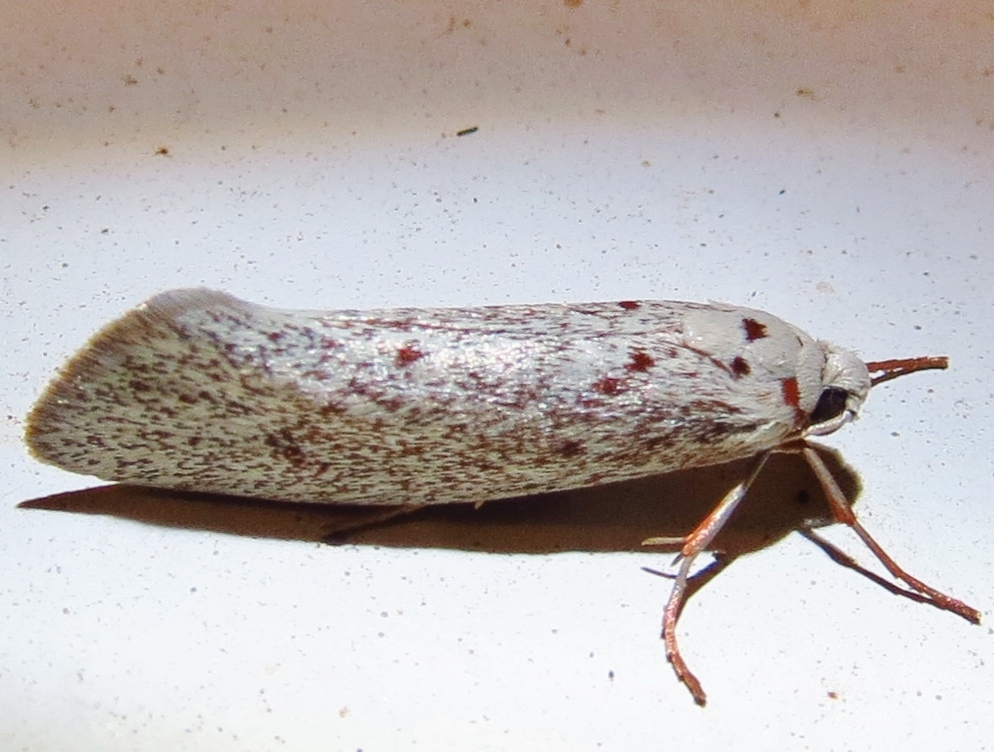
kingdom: Animalia
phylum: Arthropoda
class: Insecta
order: Lepidoptera
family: Lacturidae
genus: Lactura
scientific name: Lactura
